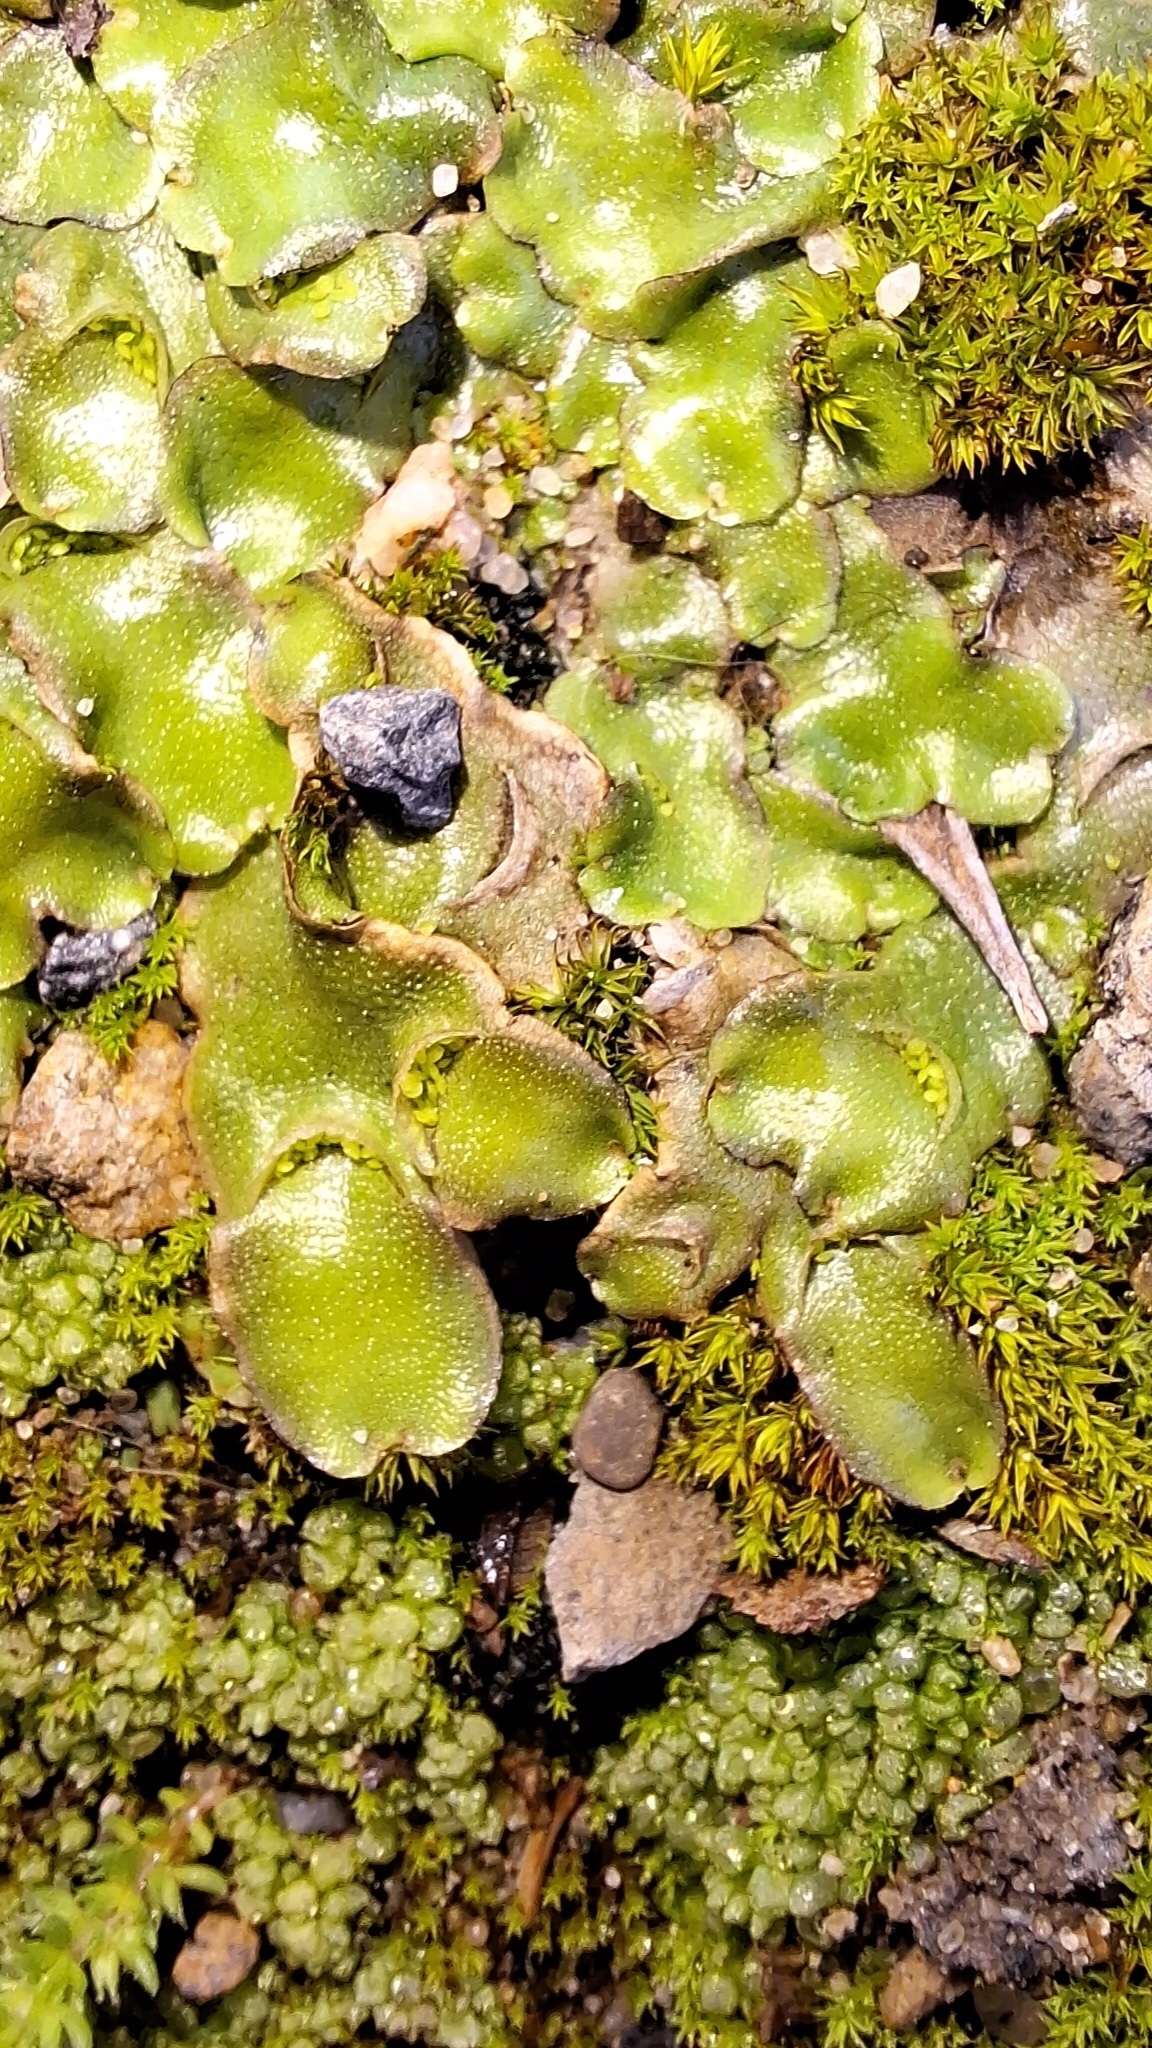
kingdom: Plantae
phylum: Marchantiophyta
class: Marchantiopsida
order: Lunulariales
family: Lunulariaceae
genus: Lunularia
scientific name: Lunularia cruciata
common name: Crescent-cup liverwort
